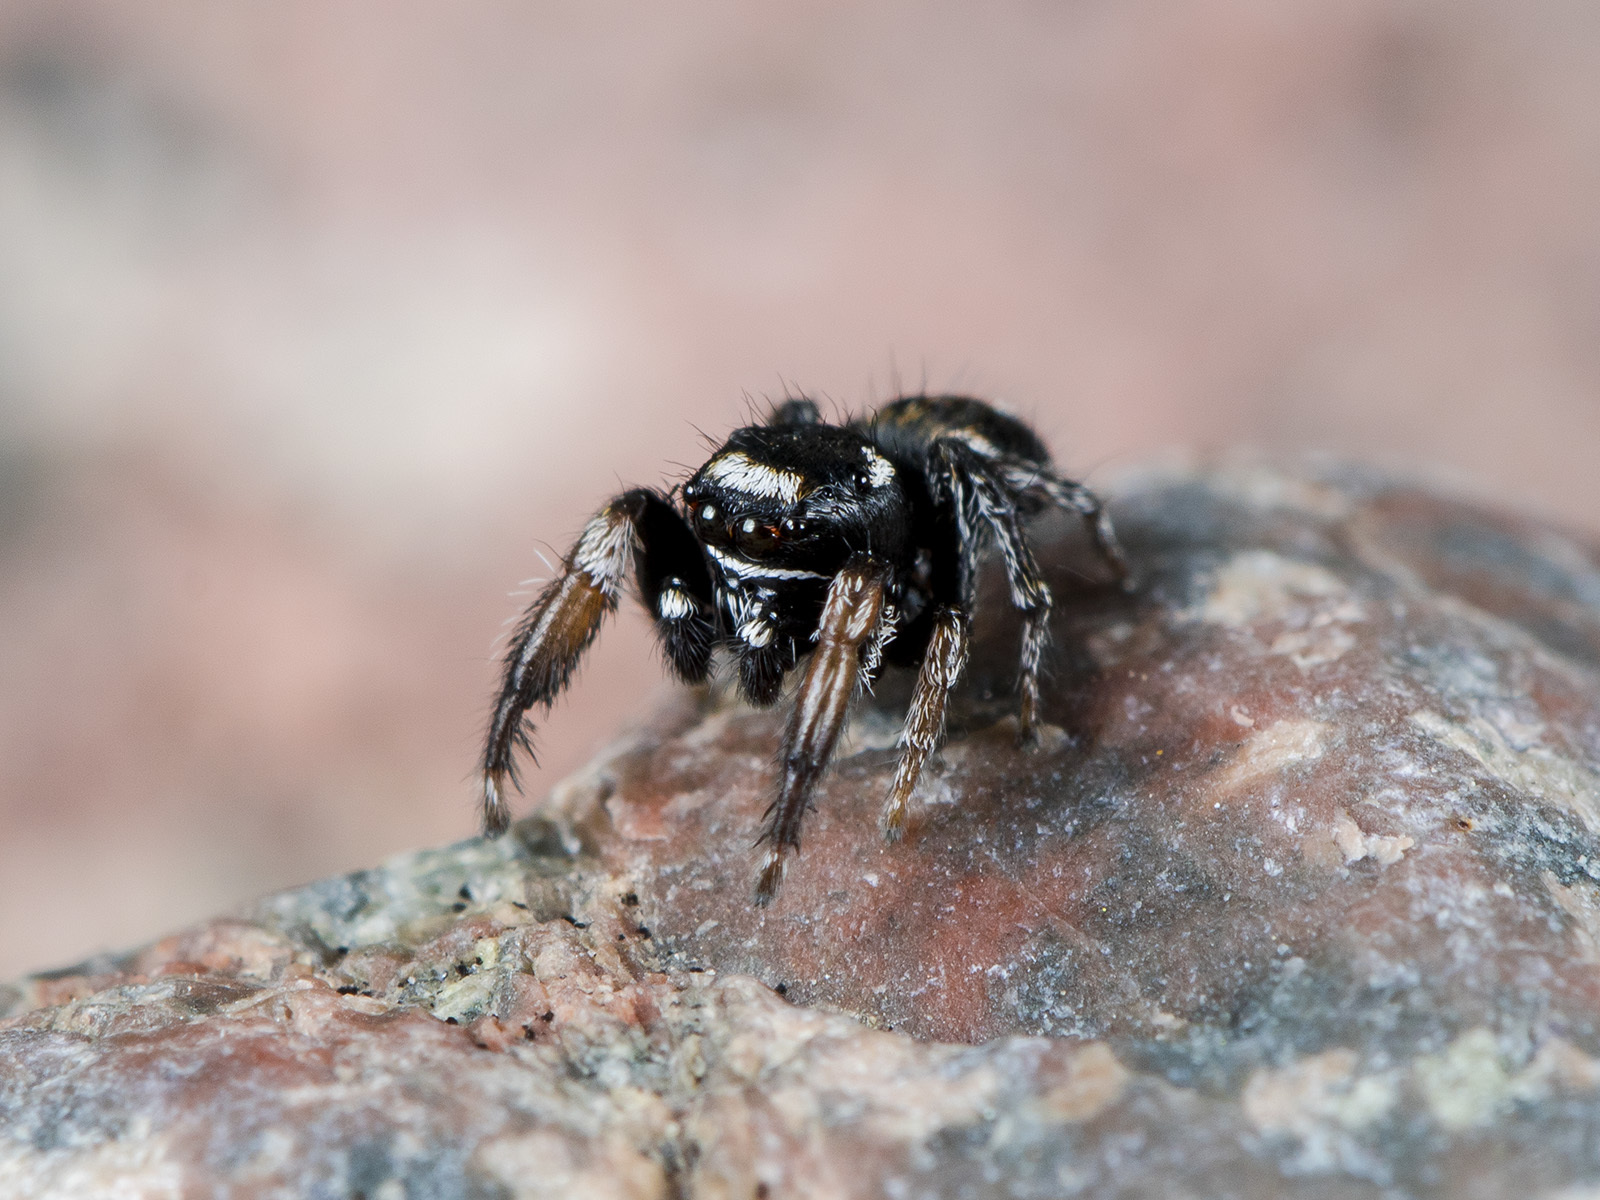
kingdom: Animalia
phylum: Arthropoda
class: Arachnida
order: Araneae
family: Salticidae
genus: Pellenes
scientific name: Pellenes geniculatus
